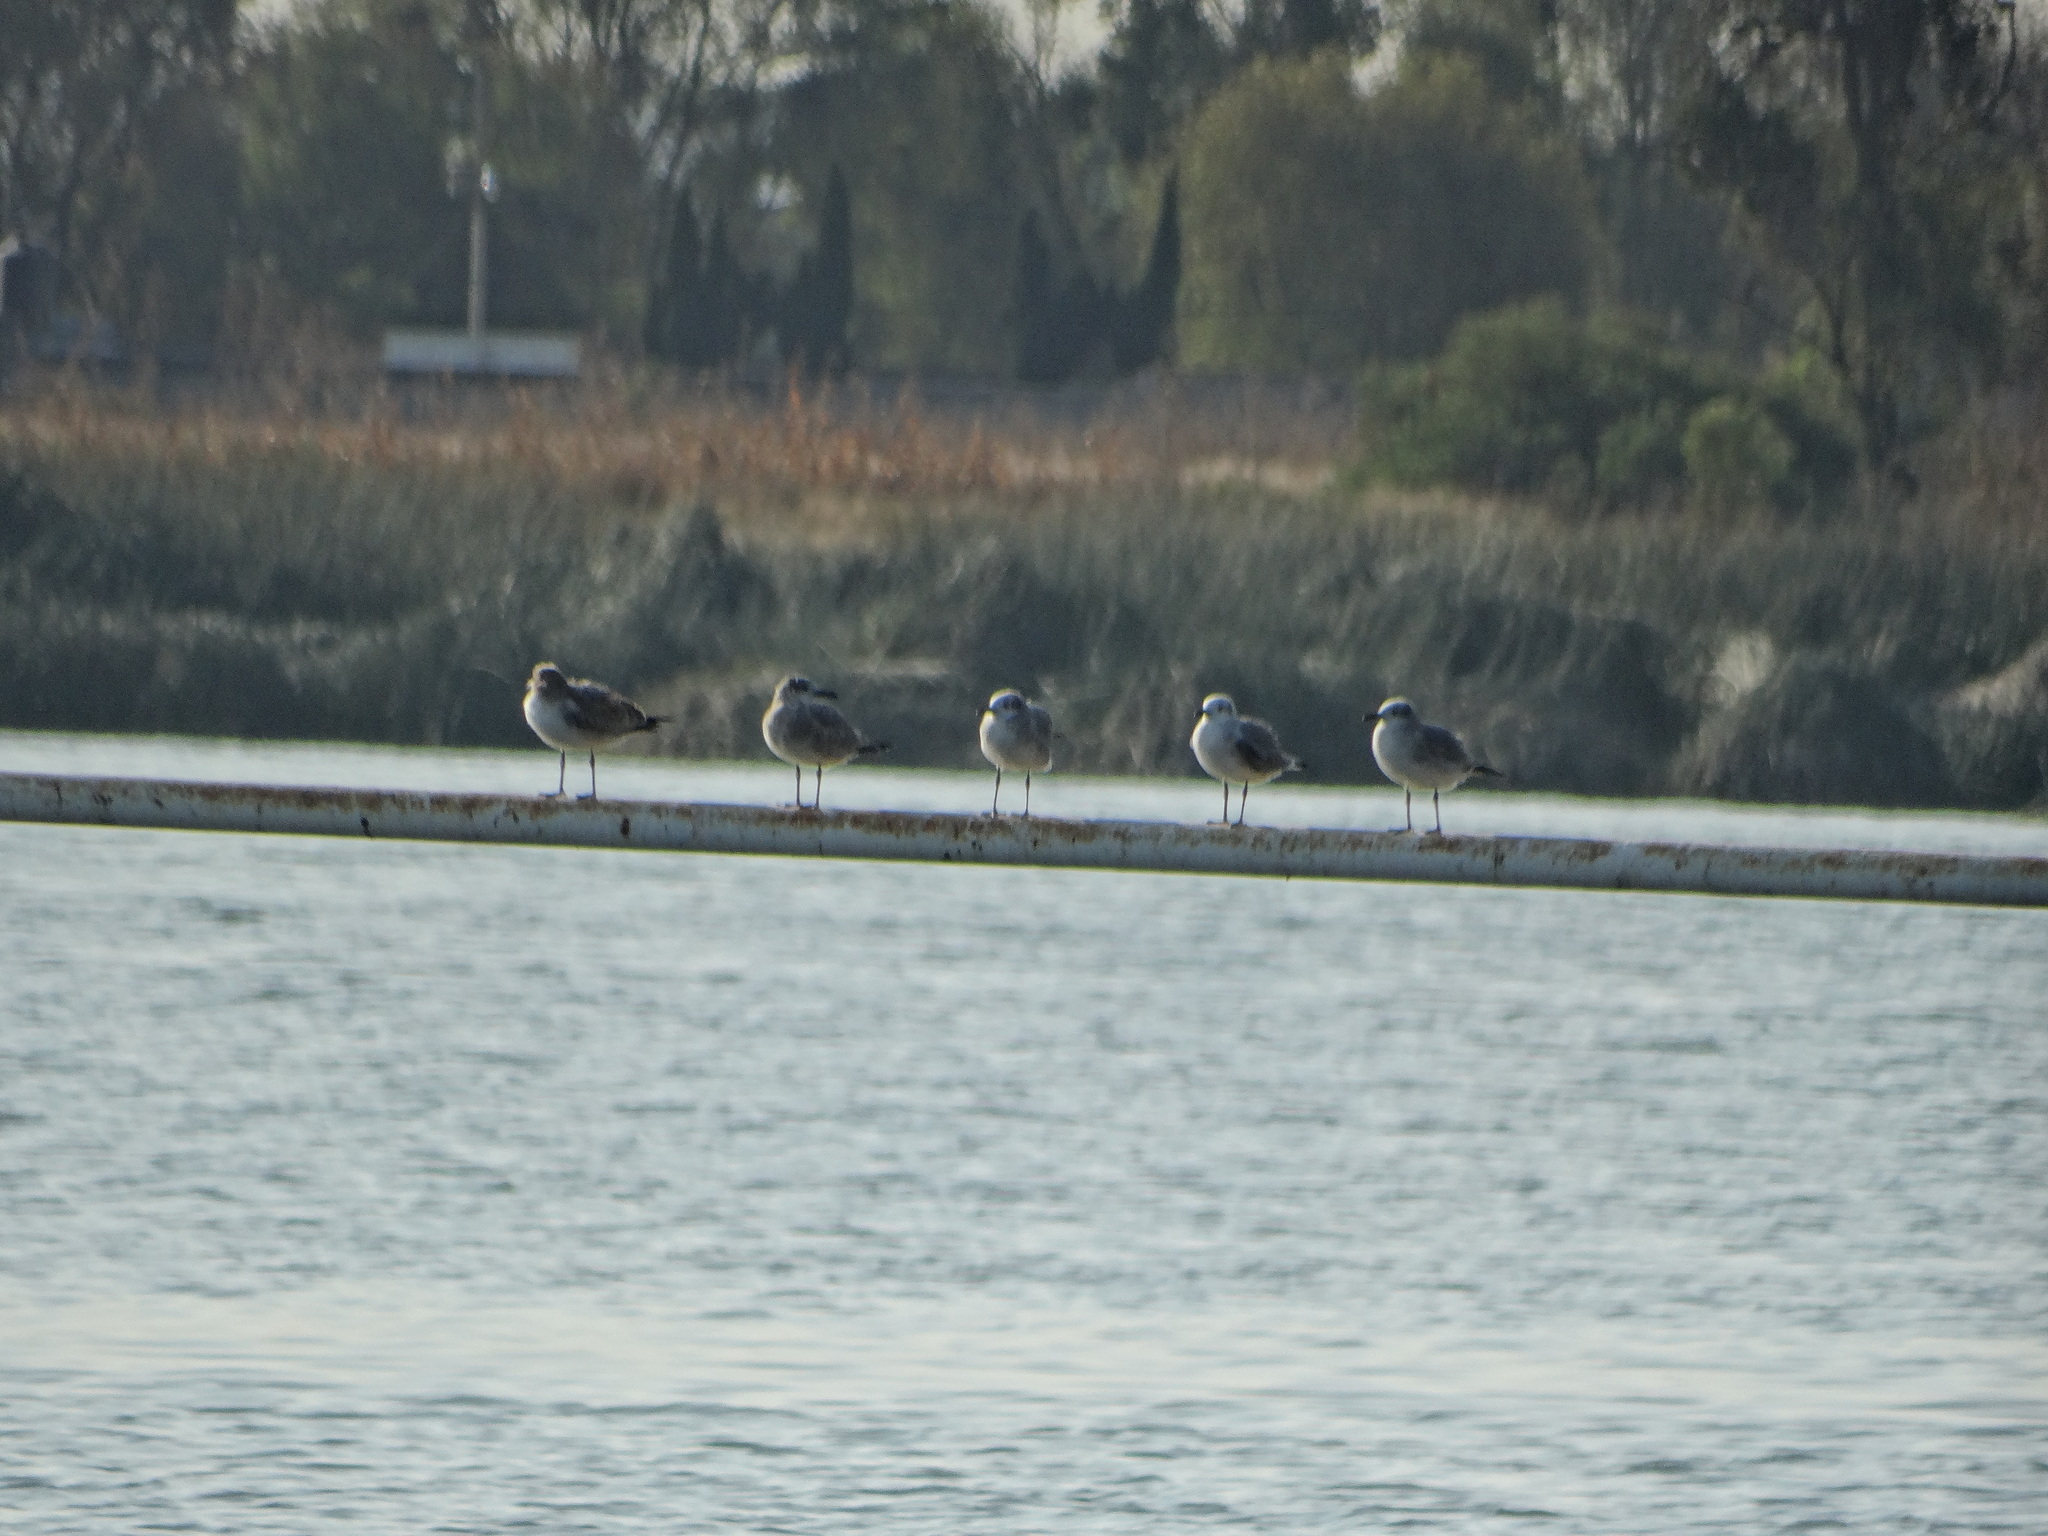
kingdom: Animalia
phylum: Chordata
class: Aves
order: Charadriiformes
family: Laridae
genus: Leucophaeus
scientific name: Leucophaeus atricilla
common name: Laughing gull
